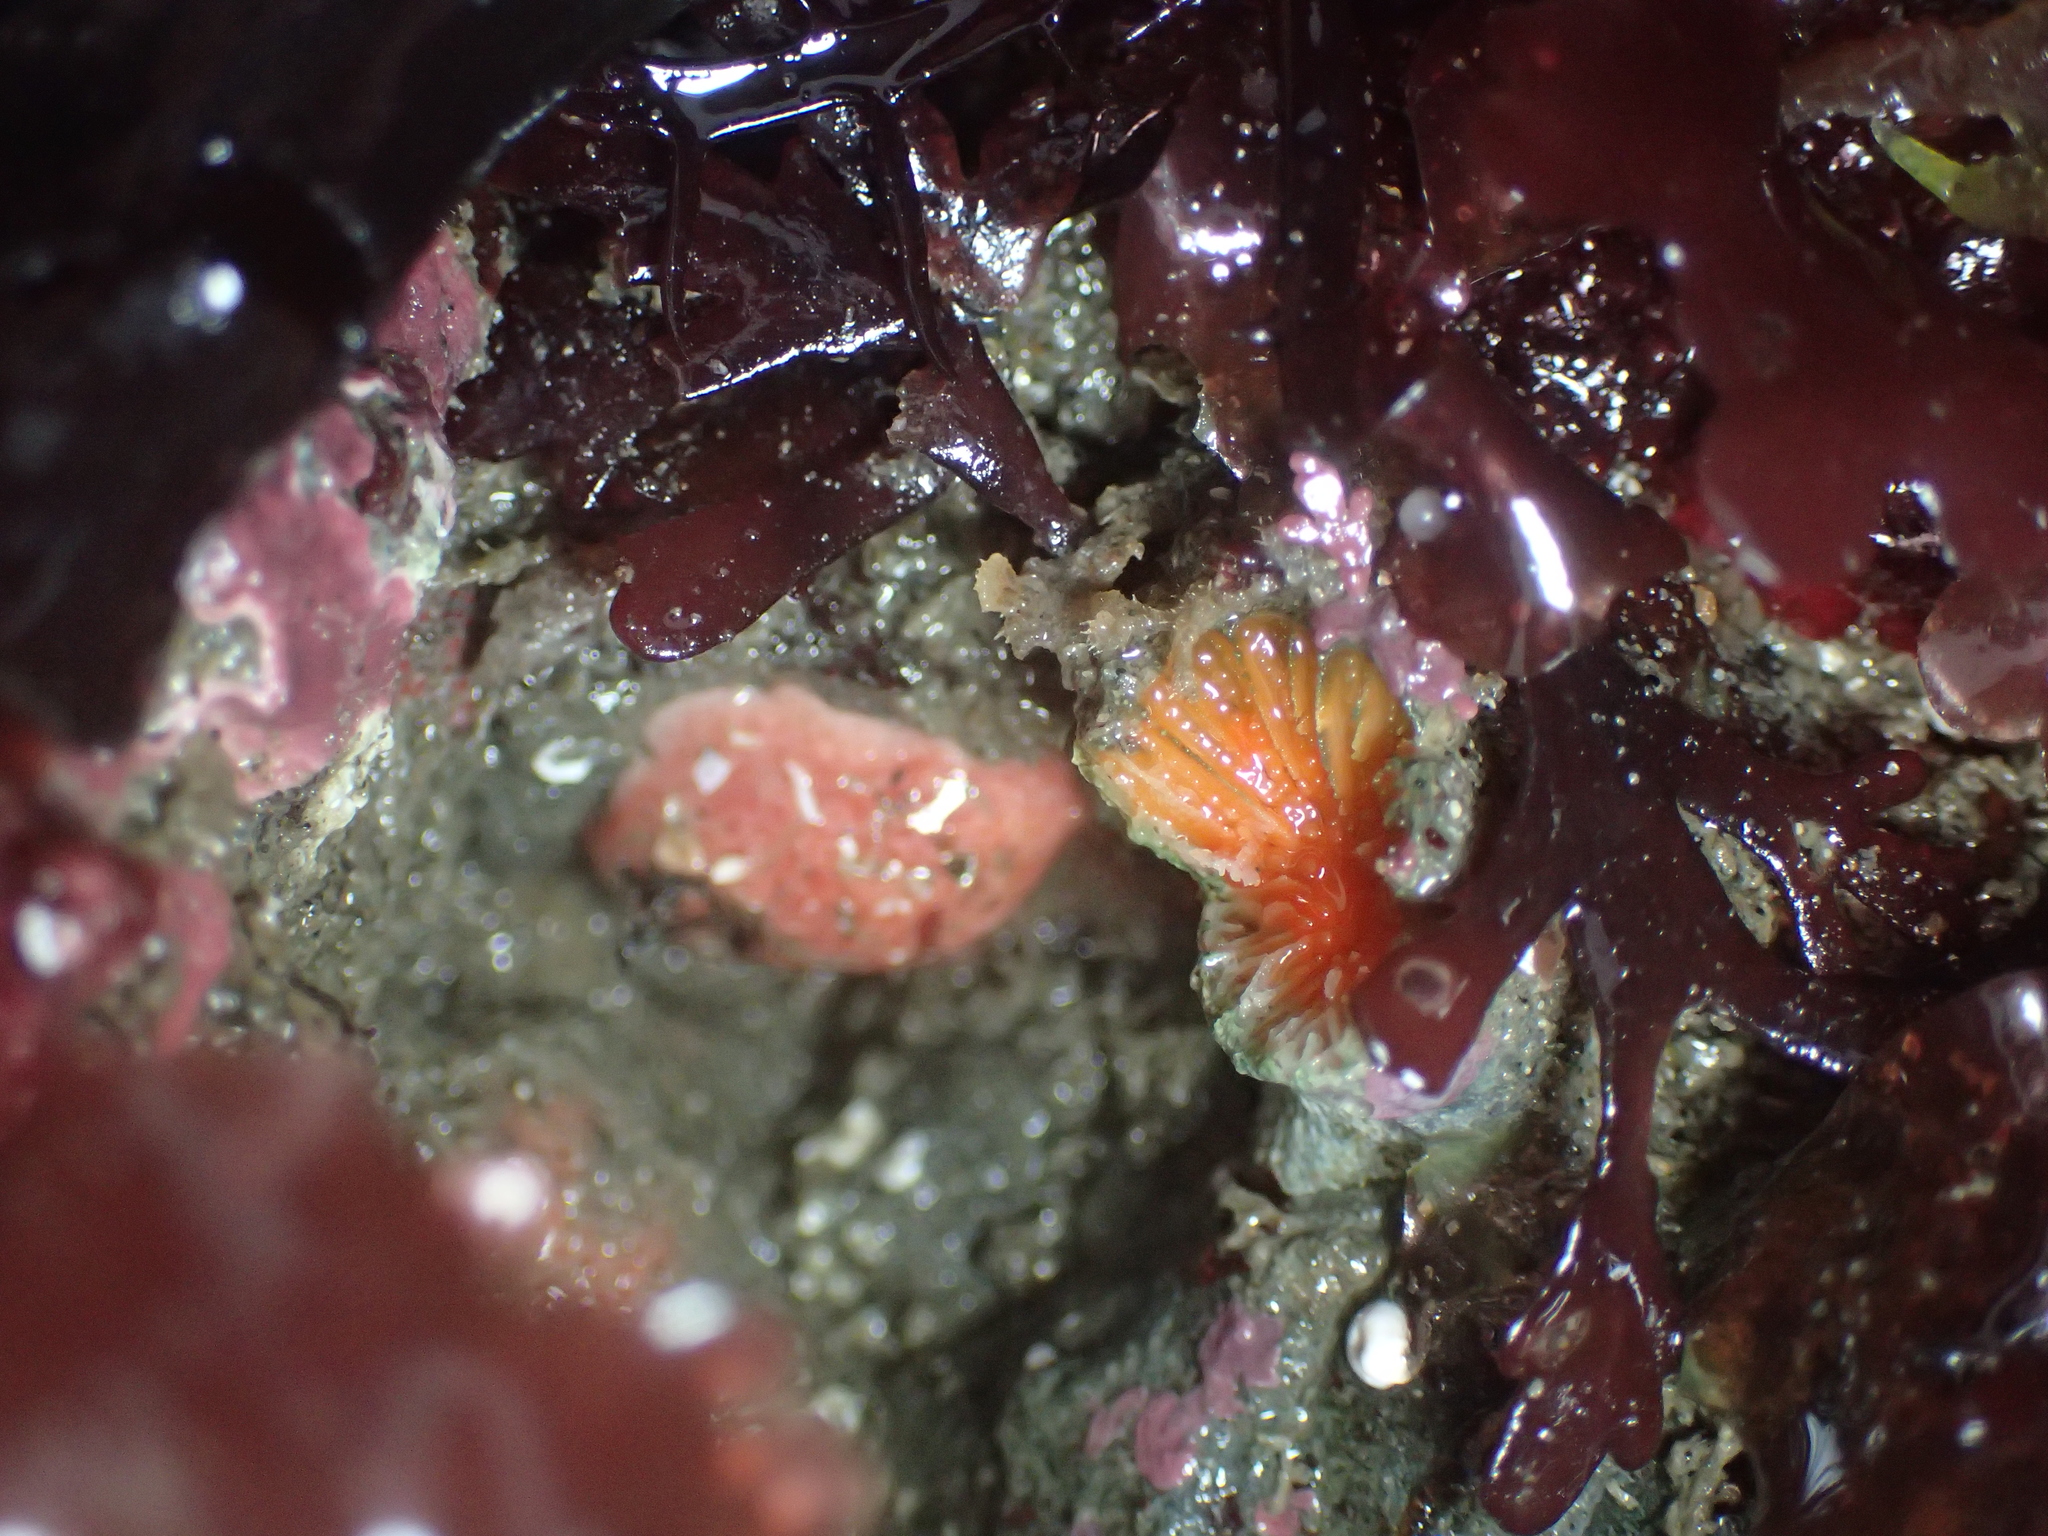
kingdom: Animalia
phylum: Cnidaria
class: Anthozoa
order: Scleractinia
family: Dendrophylliidae
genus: Balanophyllia
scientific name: Balanophyllia elegans
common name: Orange stony coral
